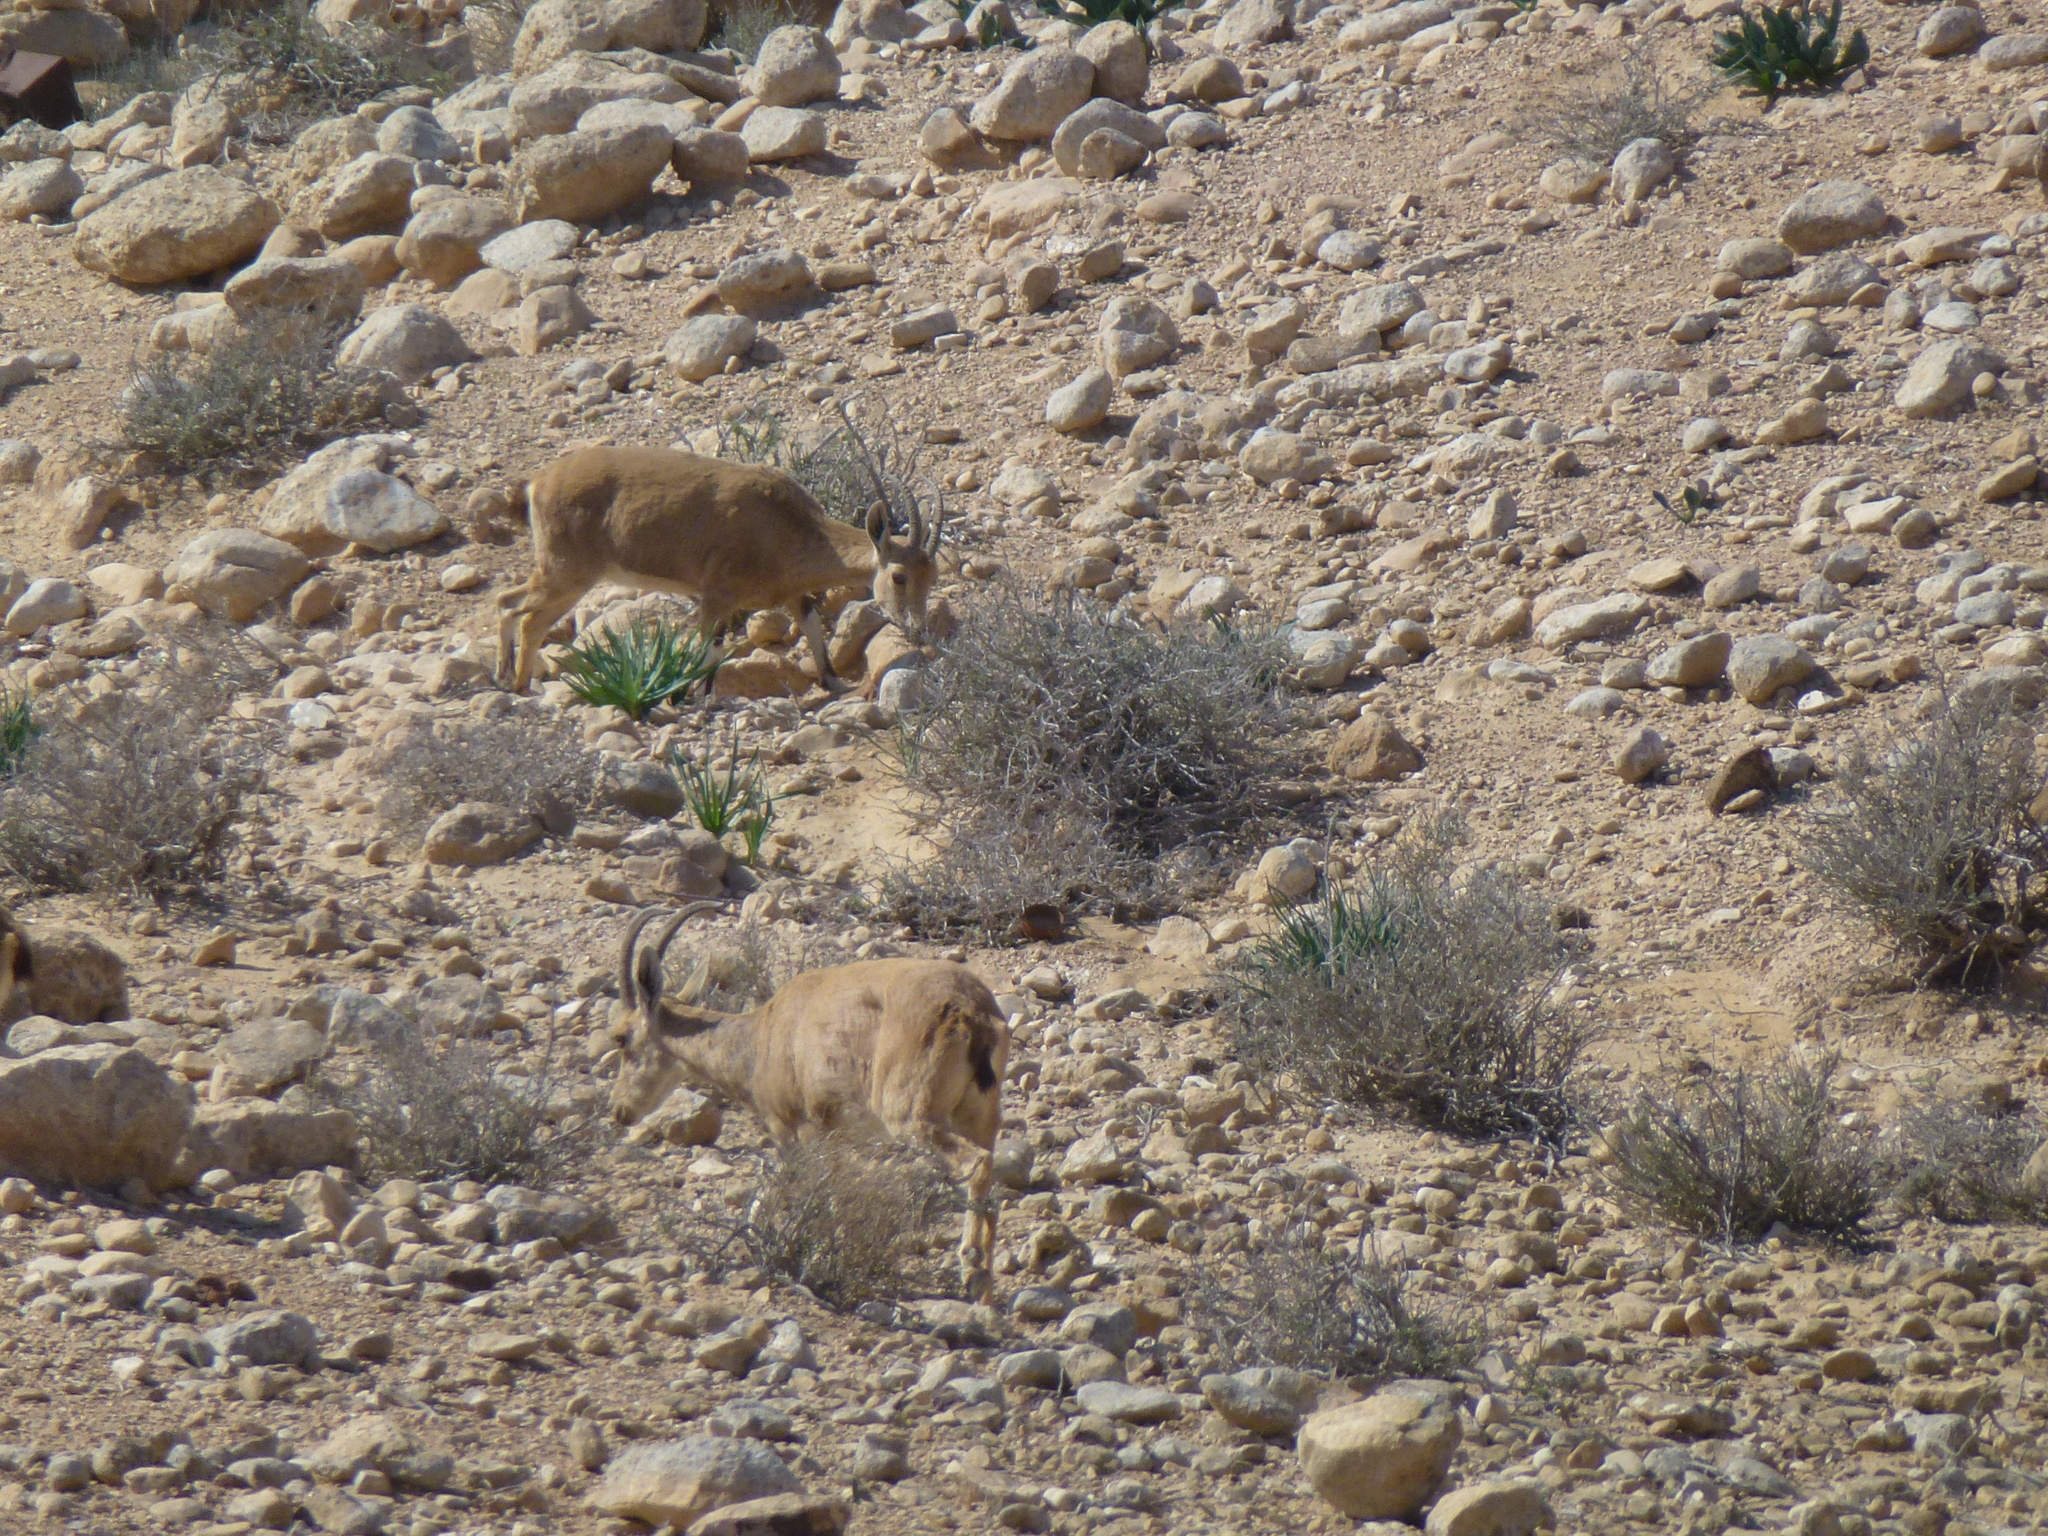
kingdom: Animalia
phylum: Chordata
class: Mammalia
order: Artiodactyla
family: Bovidae
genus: Capra
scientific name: Capra nubiana
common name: Nubian ibex
